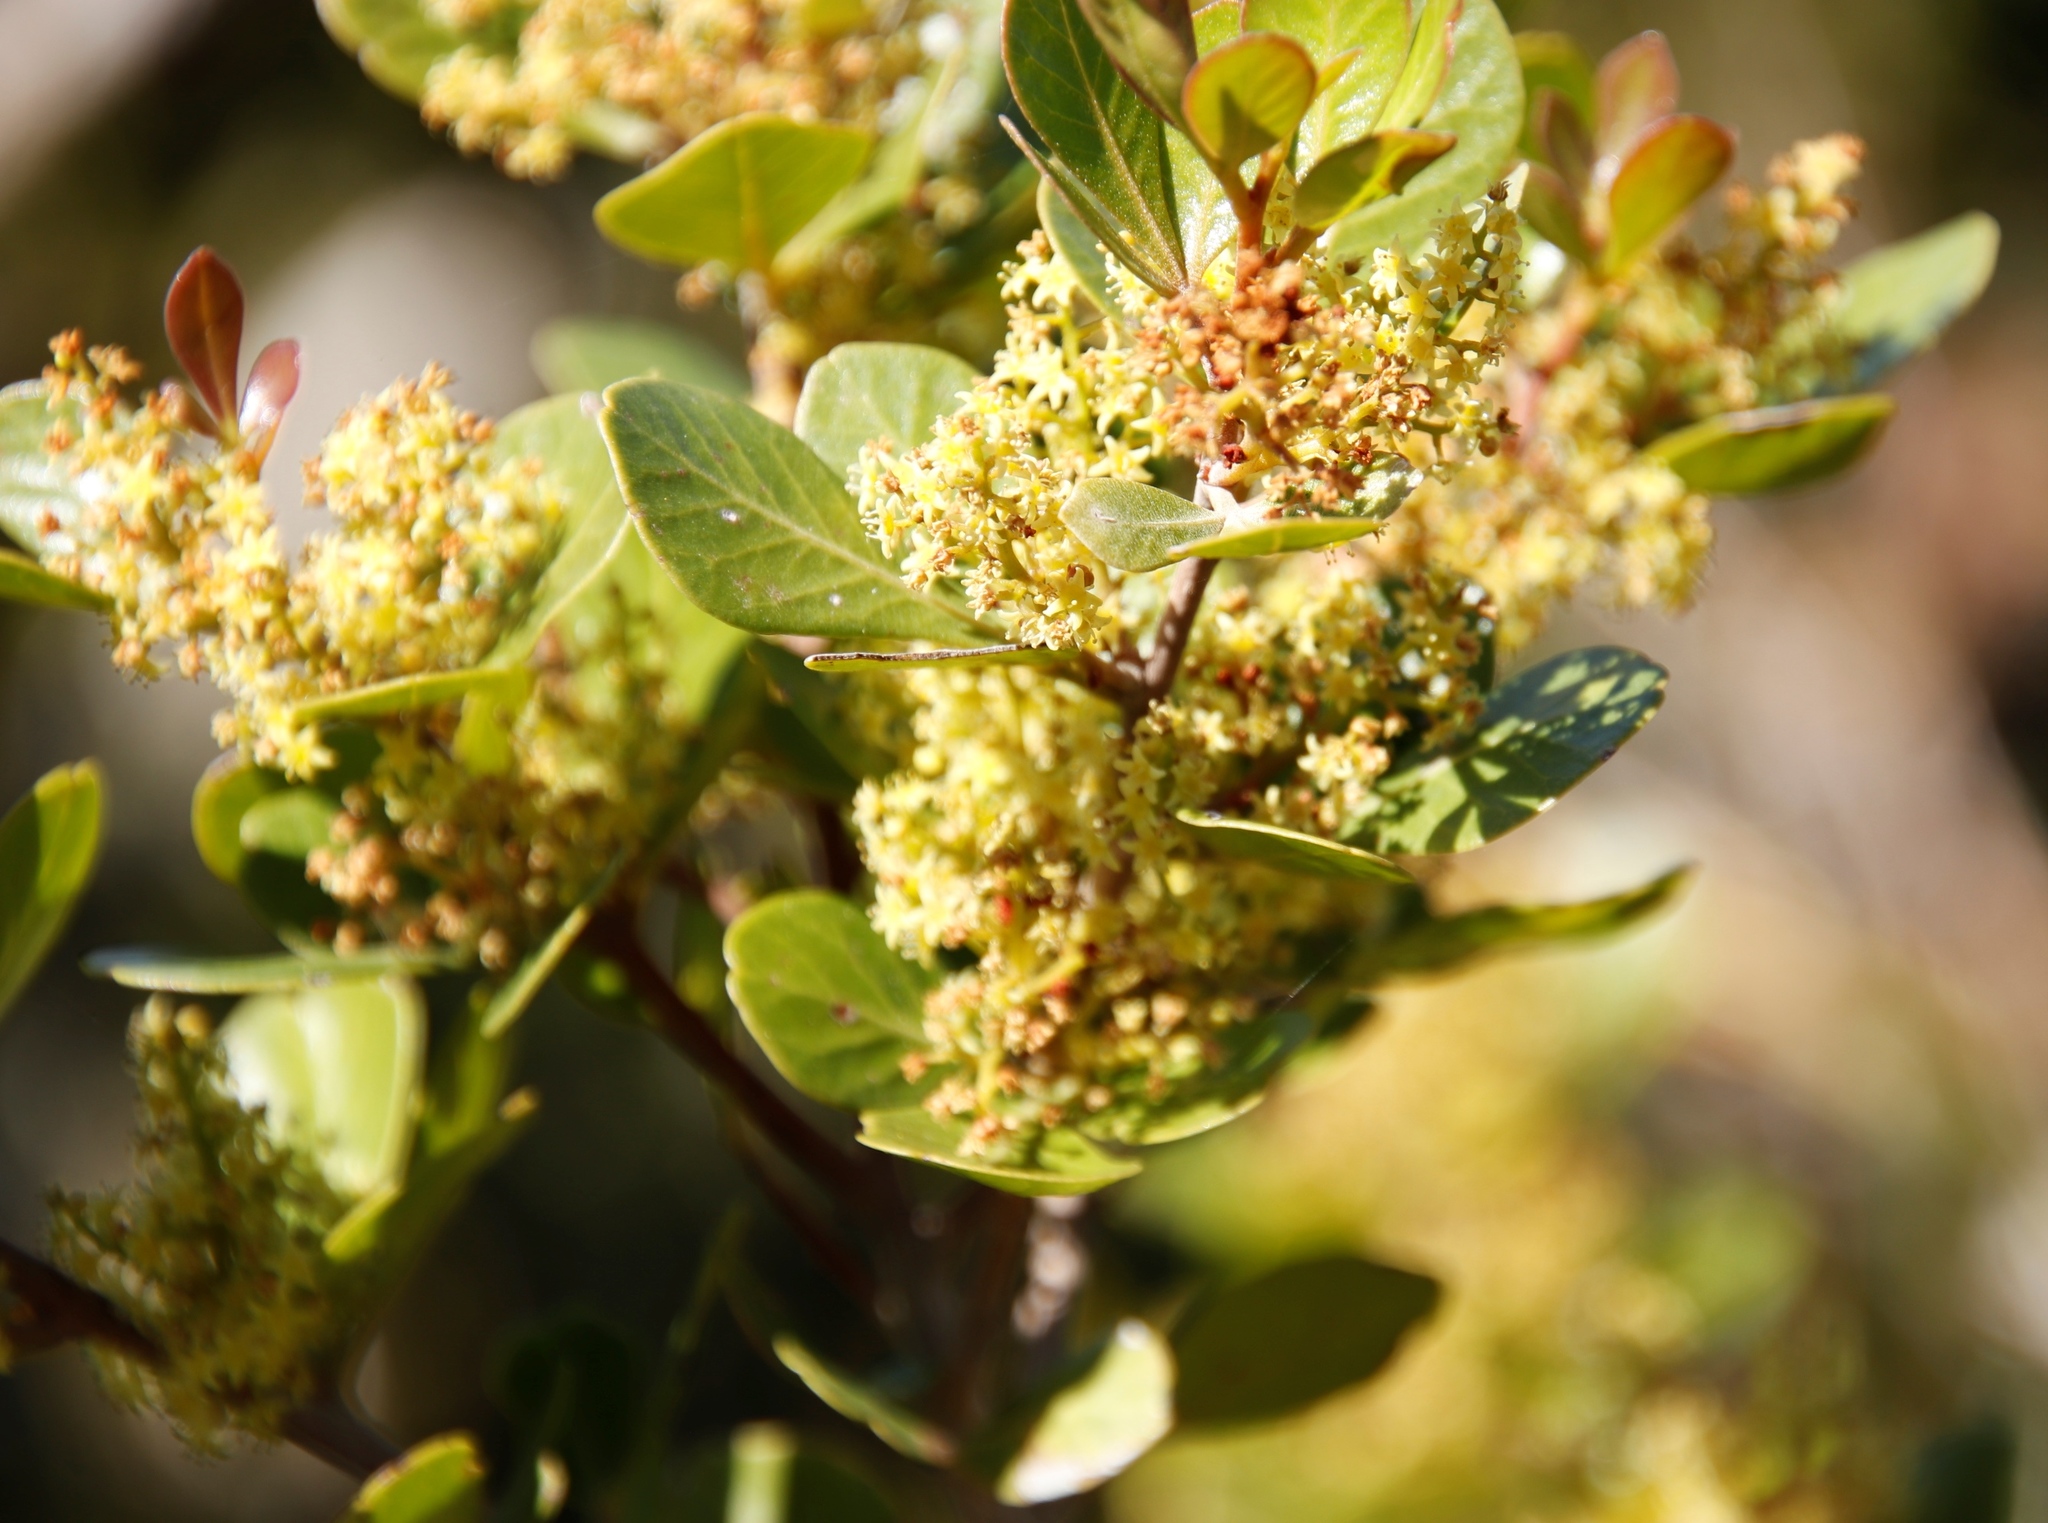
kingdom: Plantae
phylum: Tracheophyta
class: Magnoliopsida
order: Sapindales
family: Anacardiaceae
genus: Searsia
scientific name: Searsia lucida
